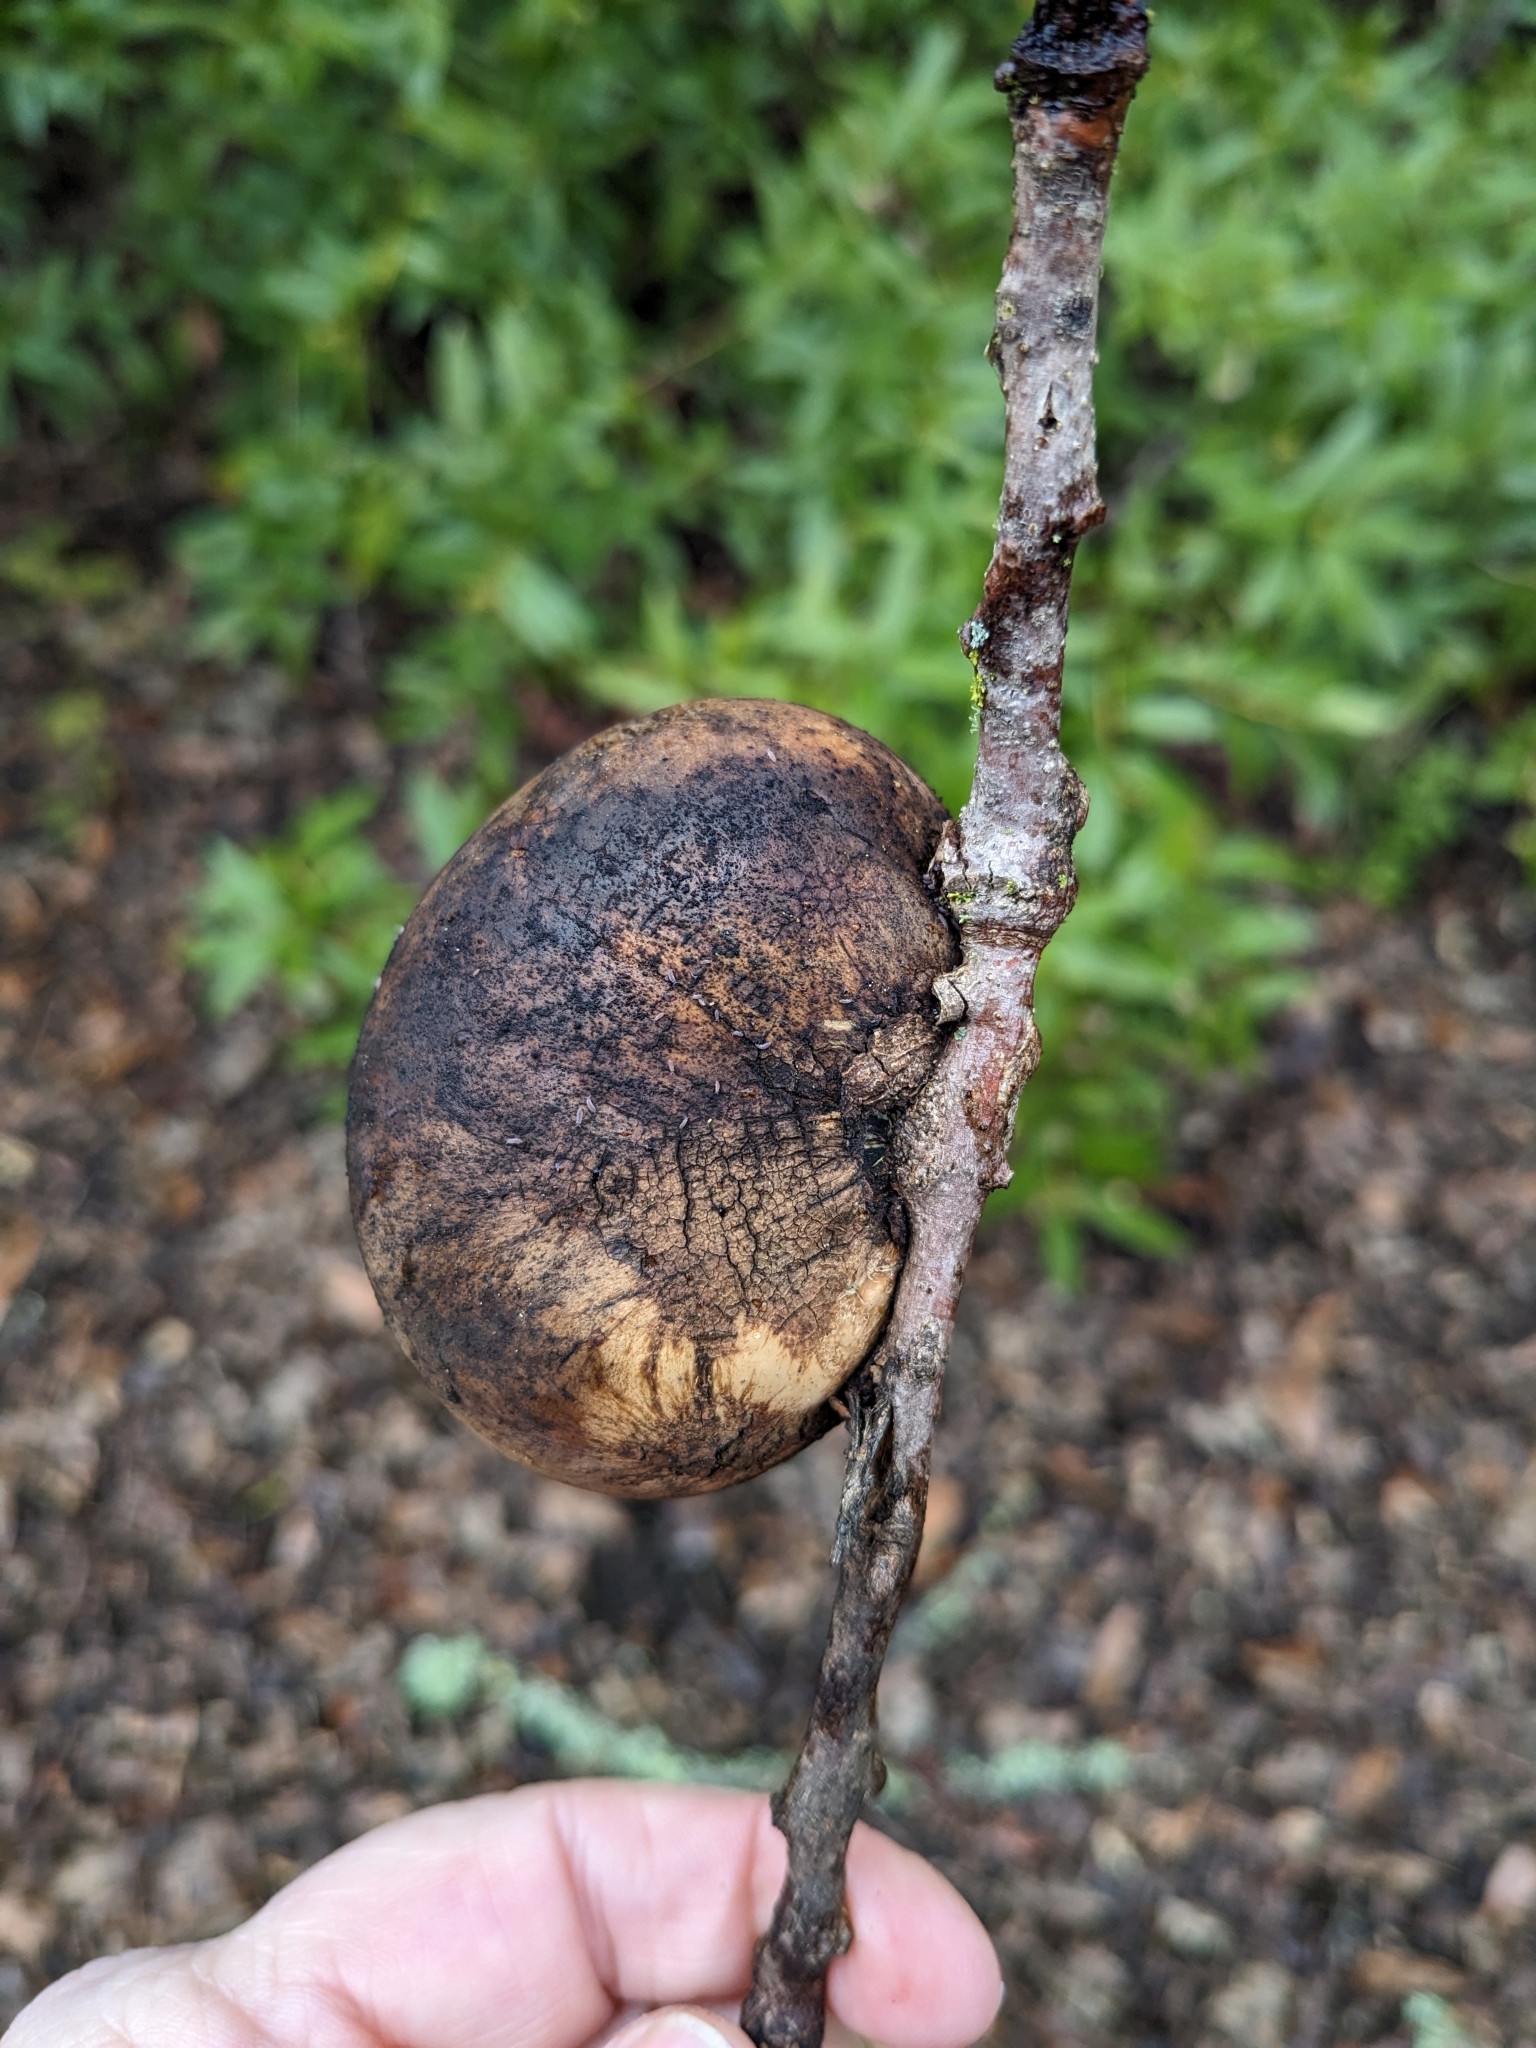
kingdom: Animalia
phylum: Arthropoda
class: Insecta
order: Hymenoptera
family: Cynipidae
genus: Andricus
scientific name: Andricus quercuscalifornicus
